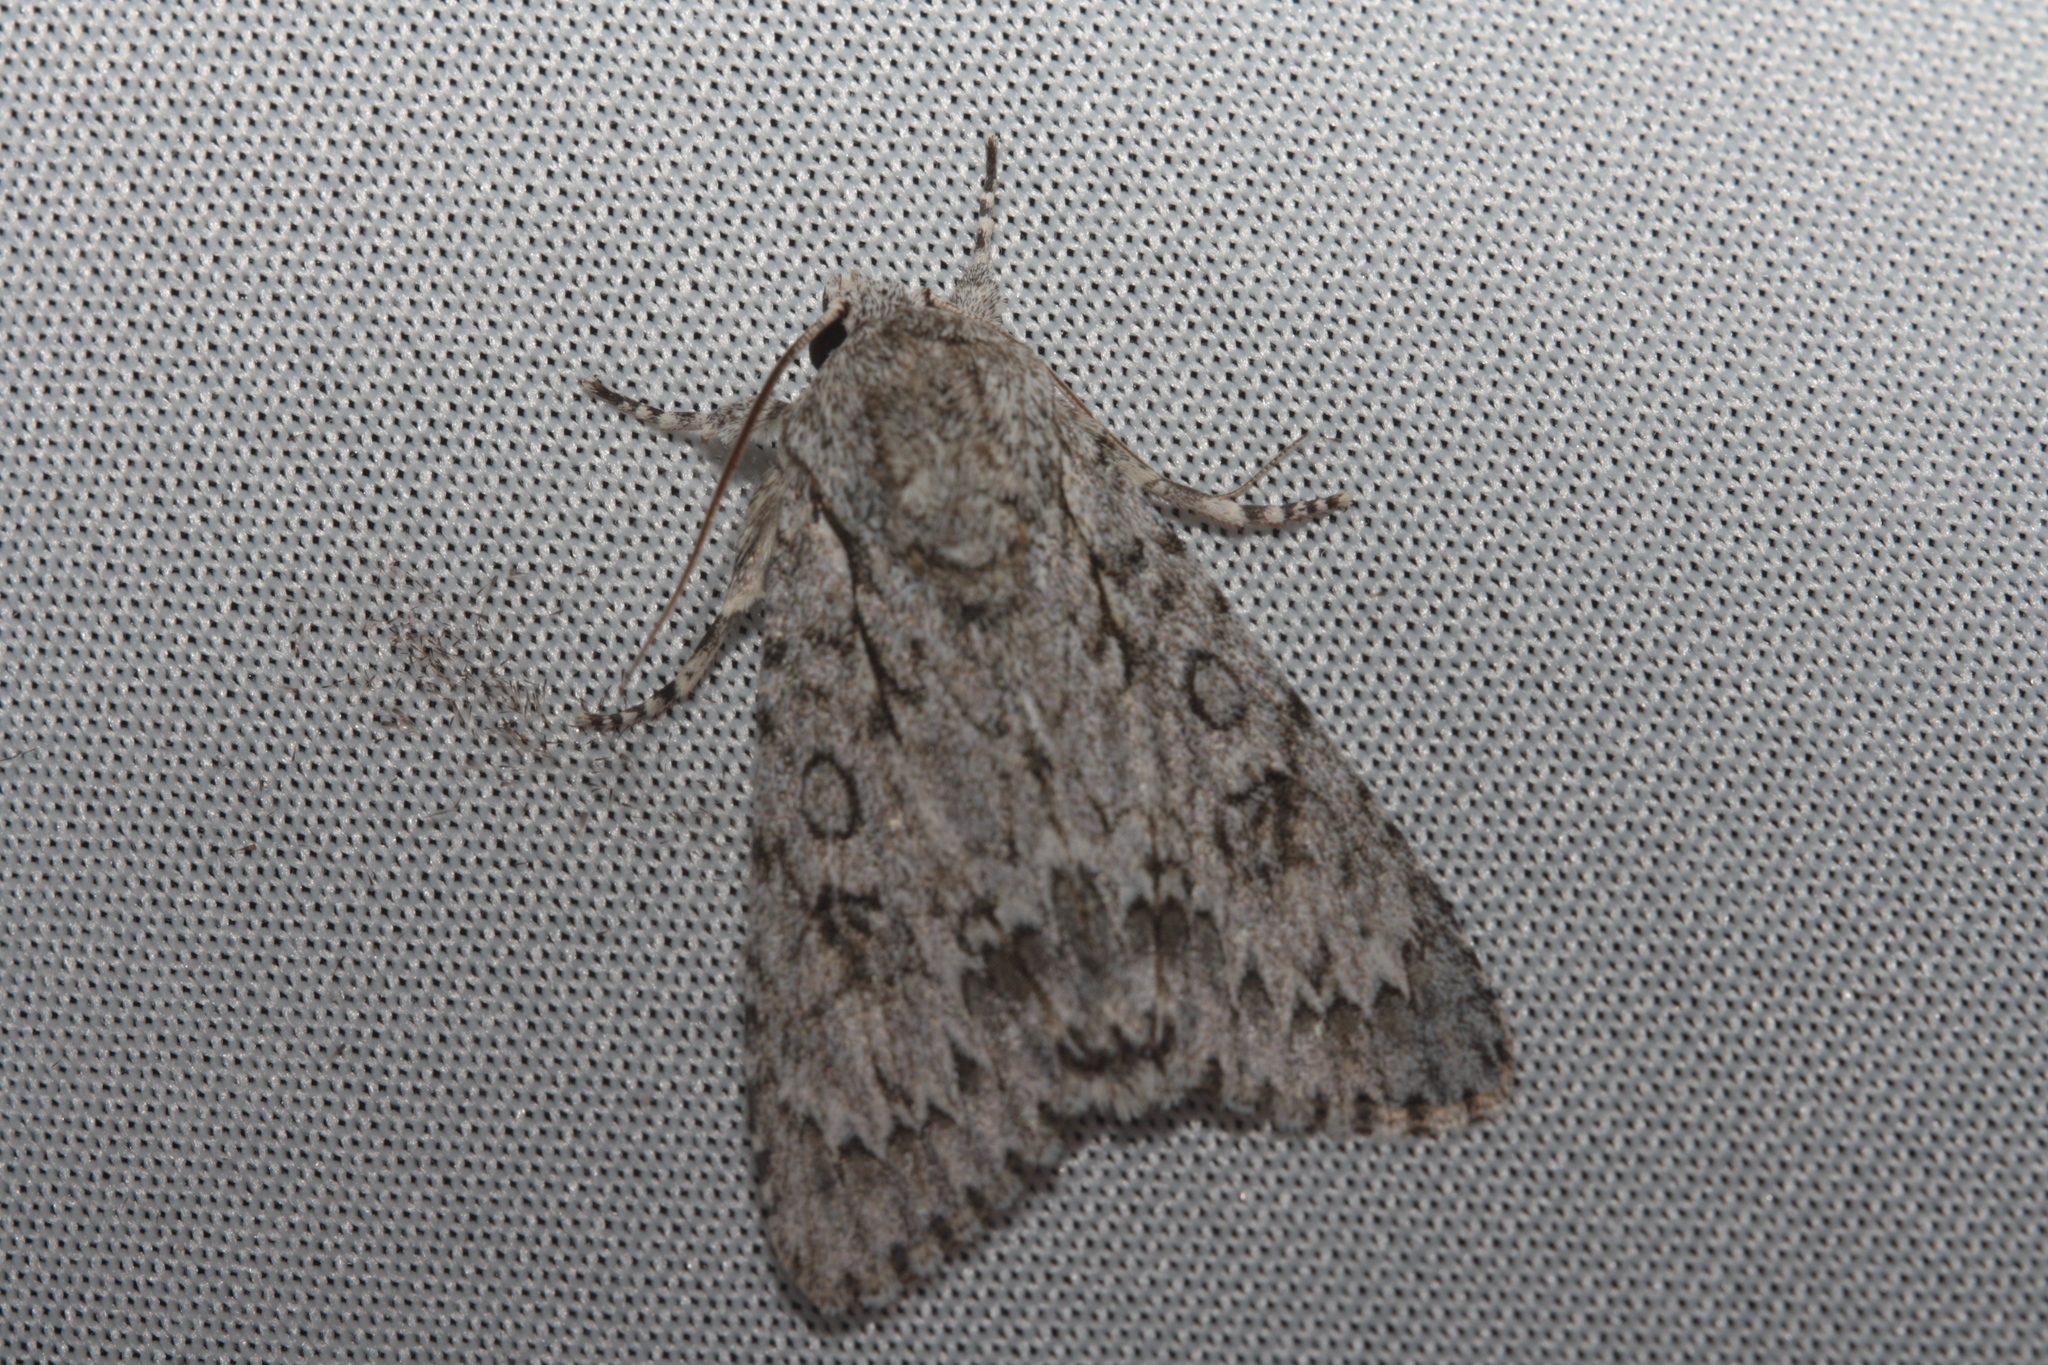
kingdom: Animalia
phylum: Arthropoda
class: Insecta
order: Lepidoptera
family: Noctuidae
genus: Acronicta
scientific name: Acronicta aceris
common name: Sycamore
